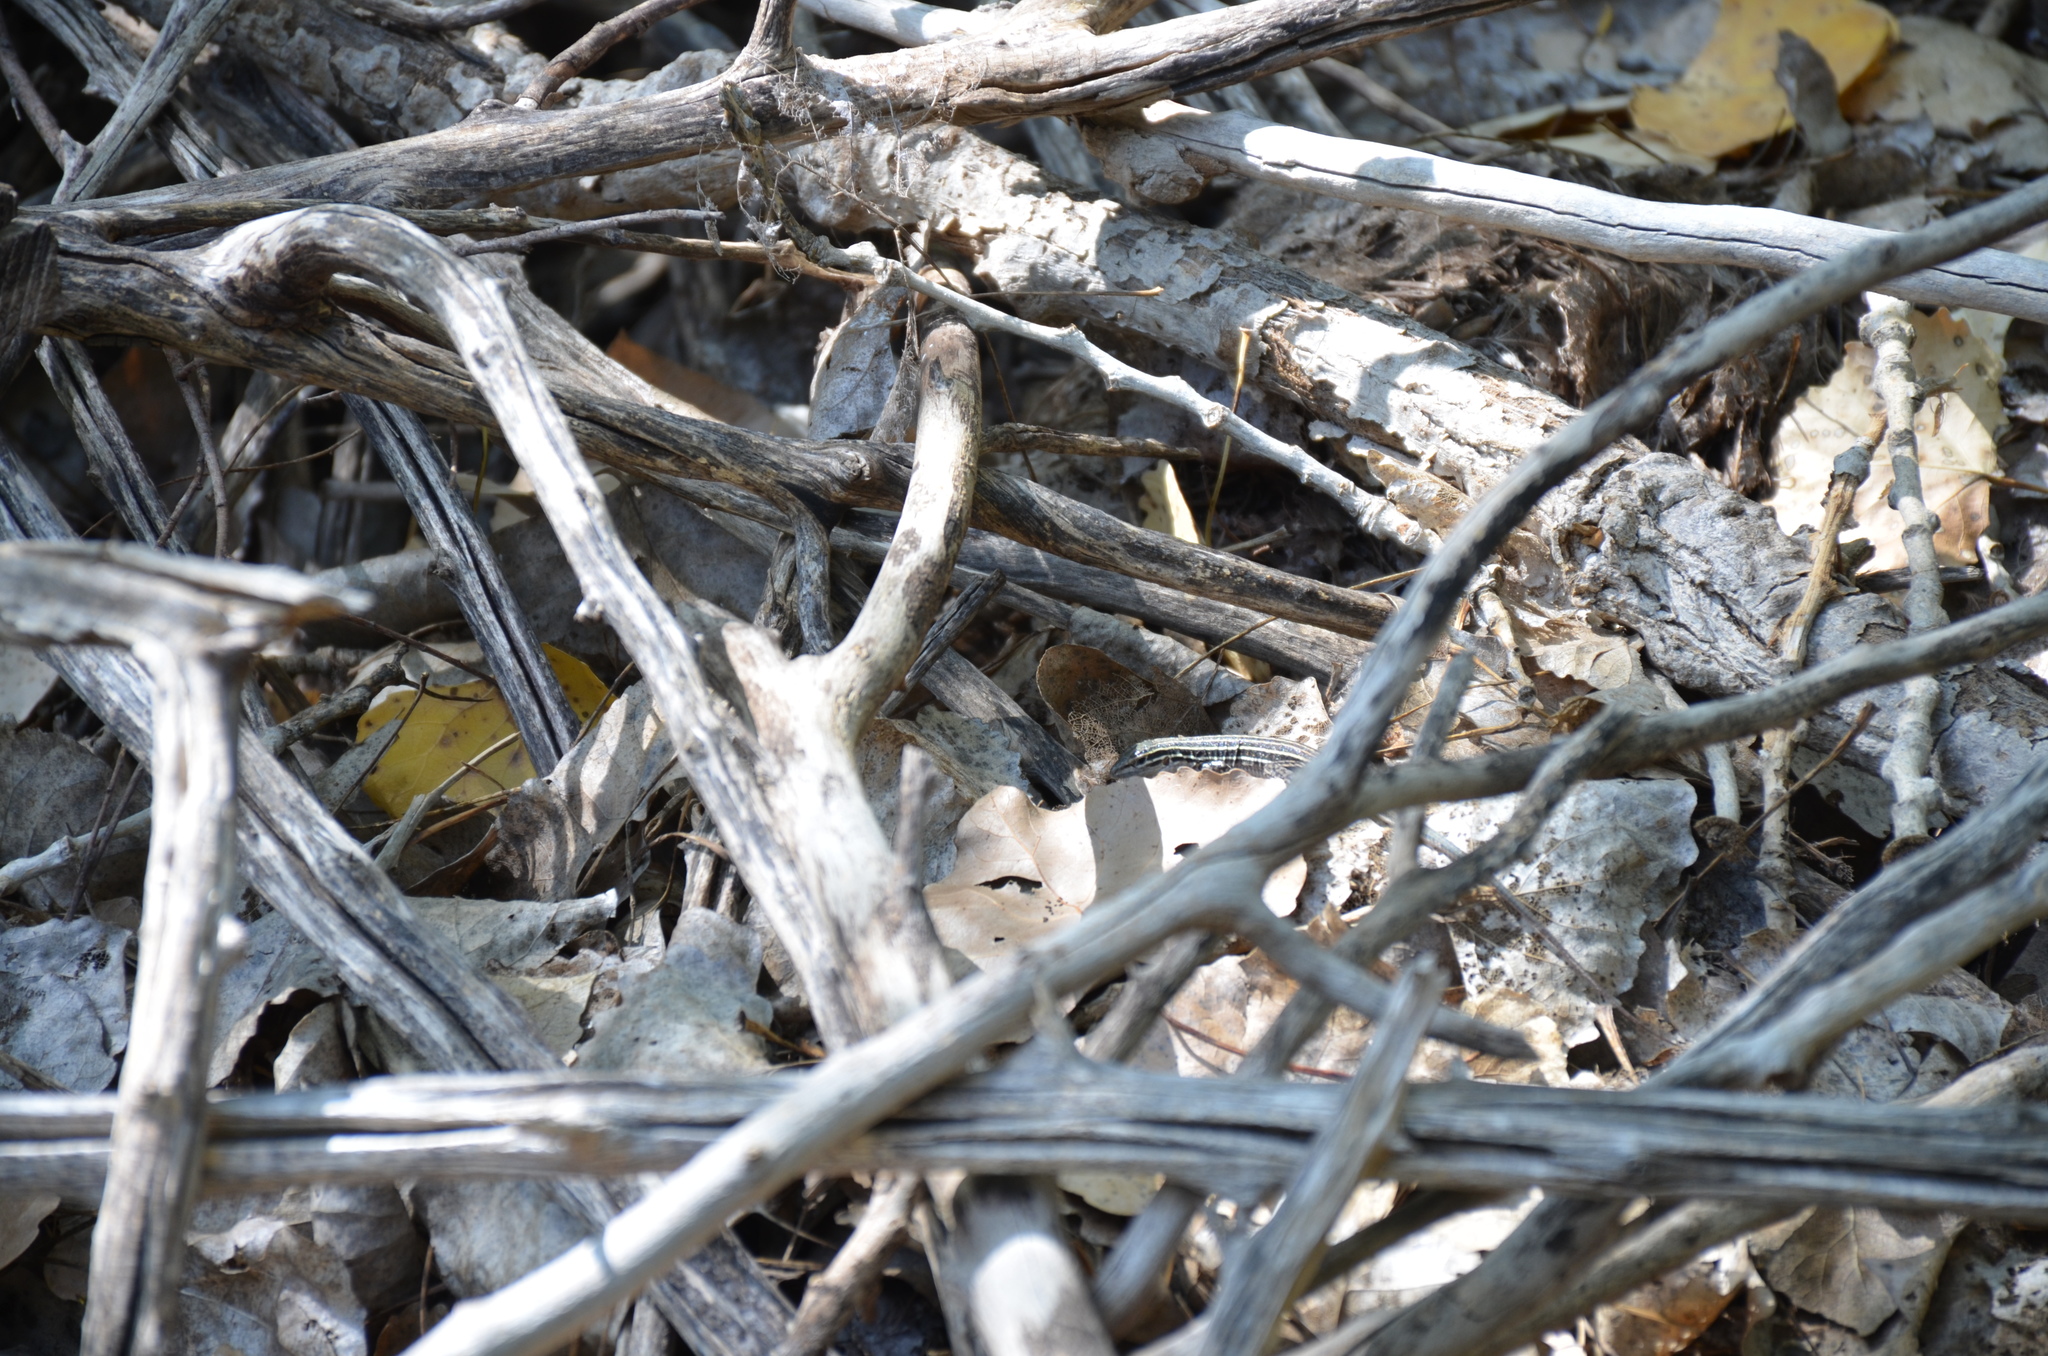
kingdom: Animalia
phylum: Chordata
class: Squamata
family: Teiidae
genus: Aspidoscelis
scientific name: Aspidoscelis neomexicanus
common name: New mexico whiptail
